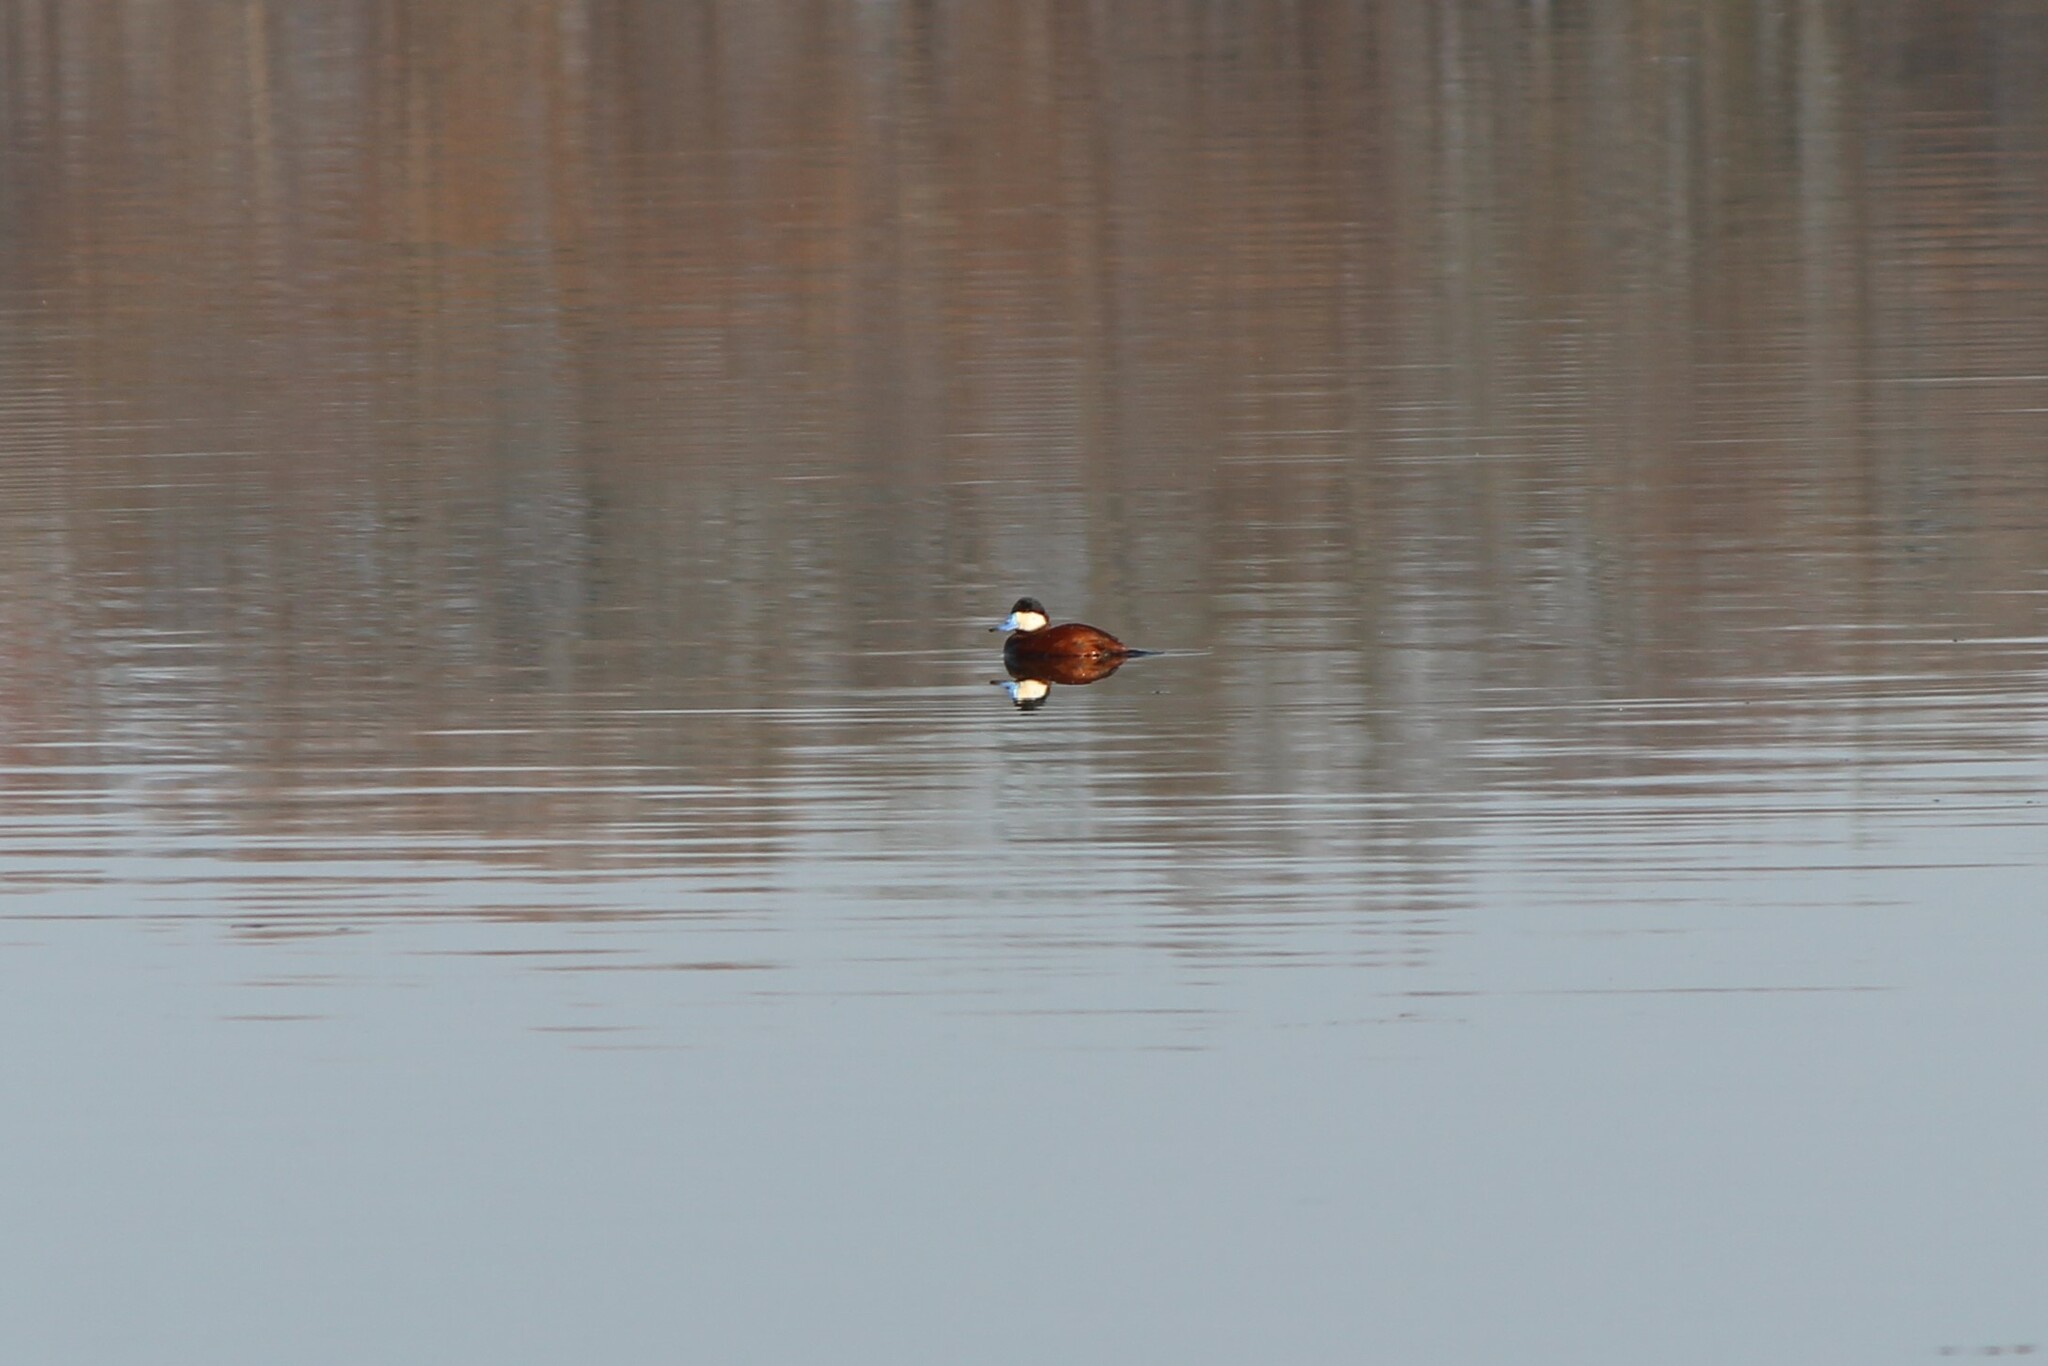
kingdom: Animalia
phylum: Chordata
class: Aves
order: Anseriformes
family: Anatidae
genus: Oxyura
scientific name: Oxyura jamaicensis
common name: Ruddy duck
